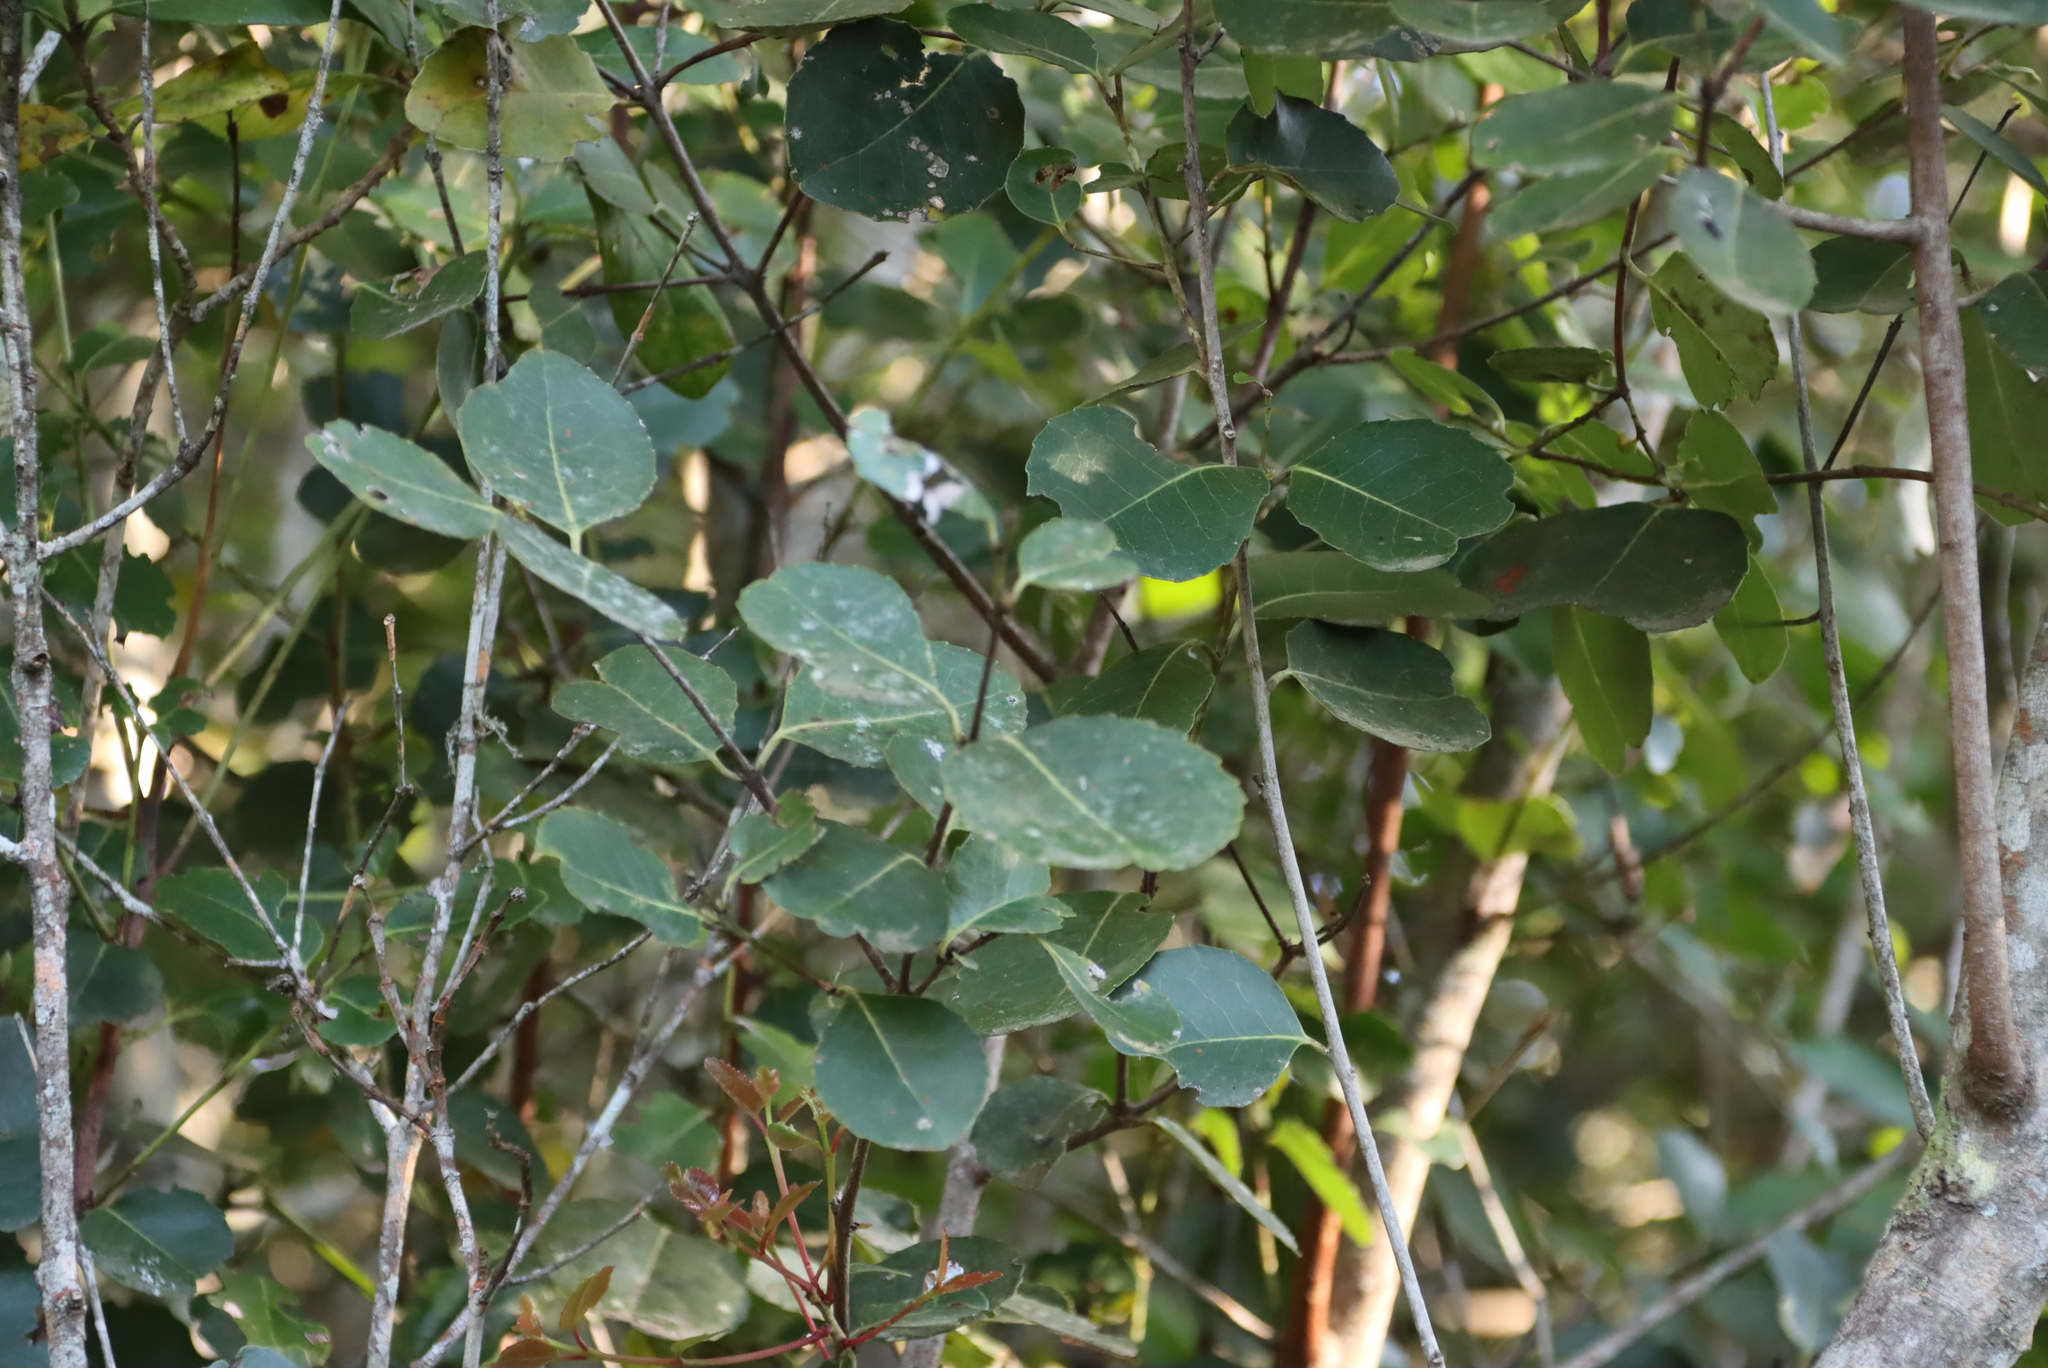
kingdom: Plantae
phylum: Tracheophyta
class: Magnoliopsida
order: Celastrales
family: Celastraceae
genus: Cassine
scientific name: Cassine peragua
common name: Cape saffron
